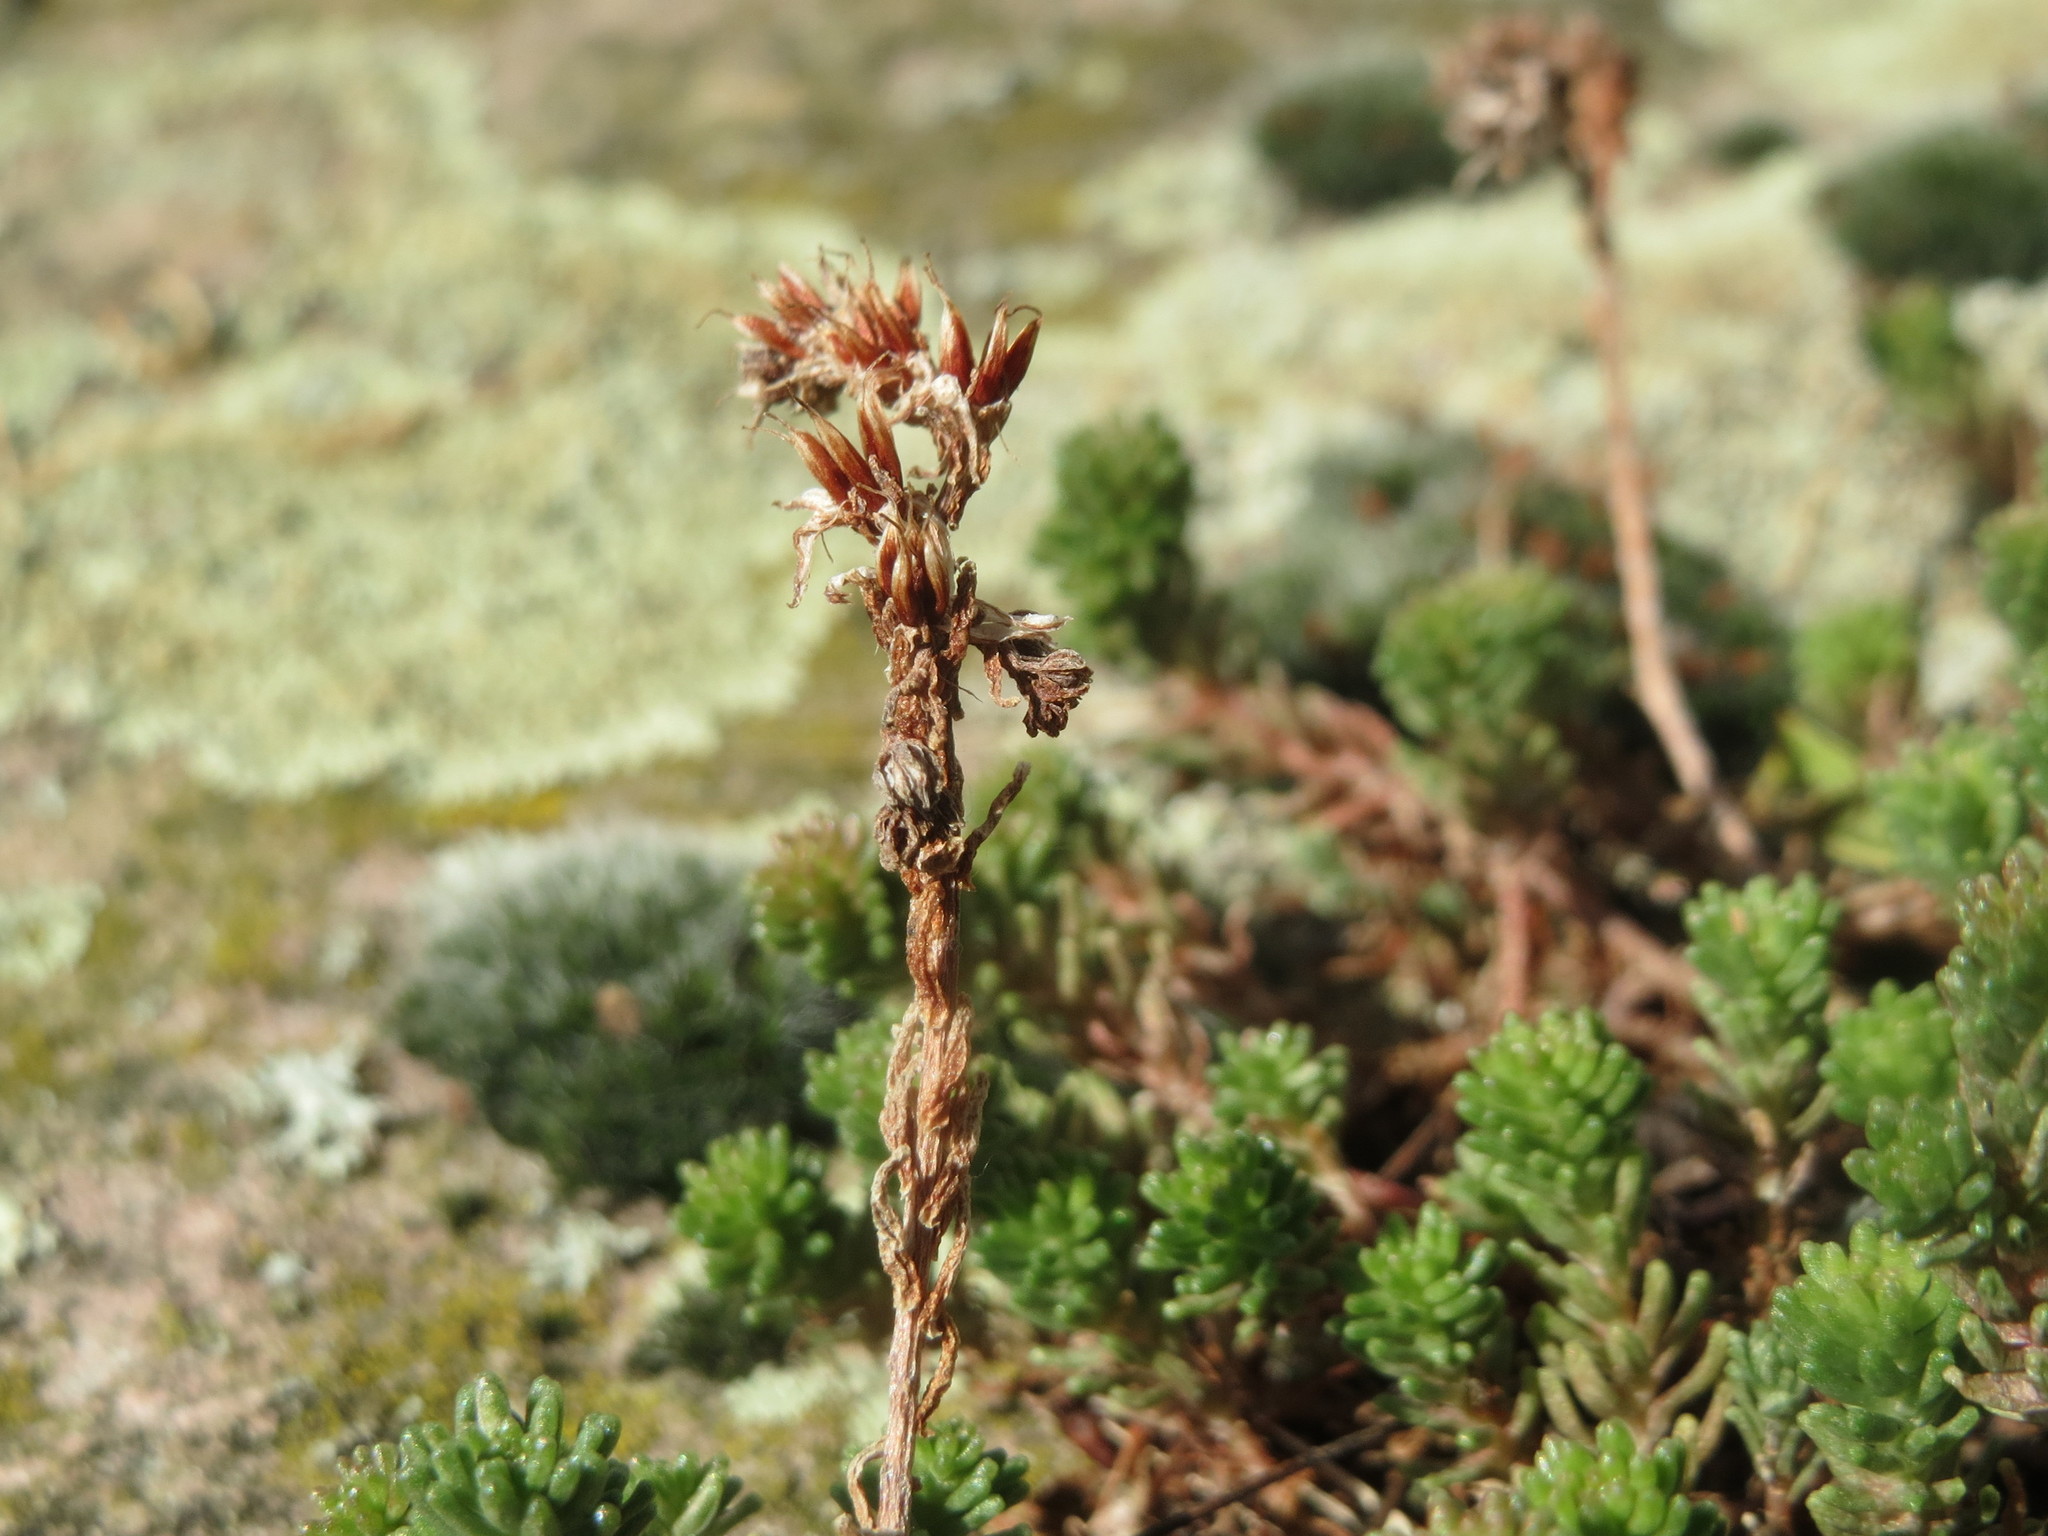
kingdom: Plantae
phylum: Tracheophyta
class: Magnoliopsida
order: Saxifragales
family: Crassulaceae
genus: Sedum
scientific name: Sedum sexangulare
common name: Tasteless stonecrop
